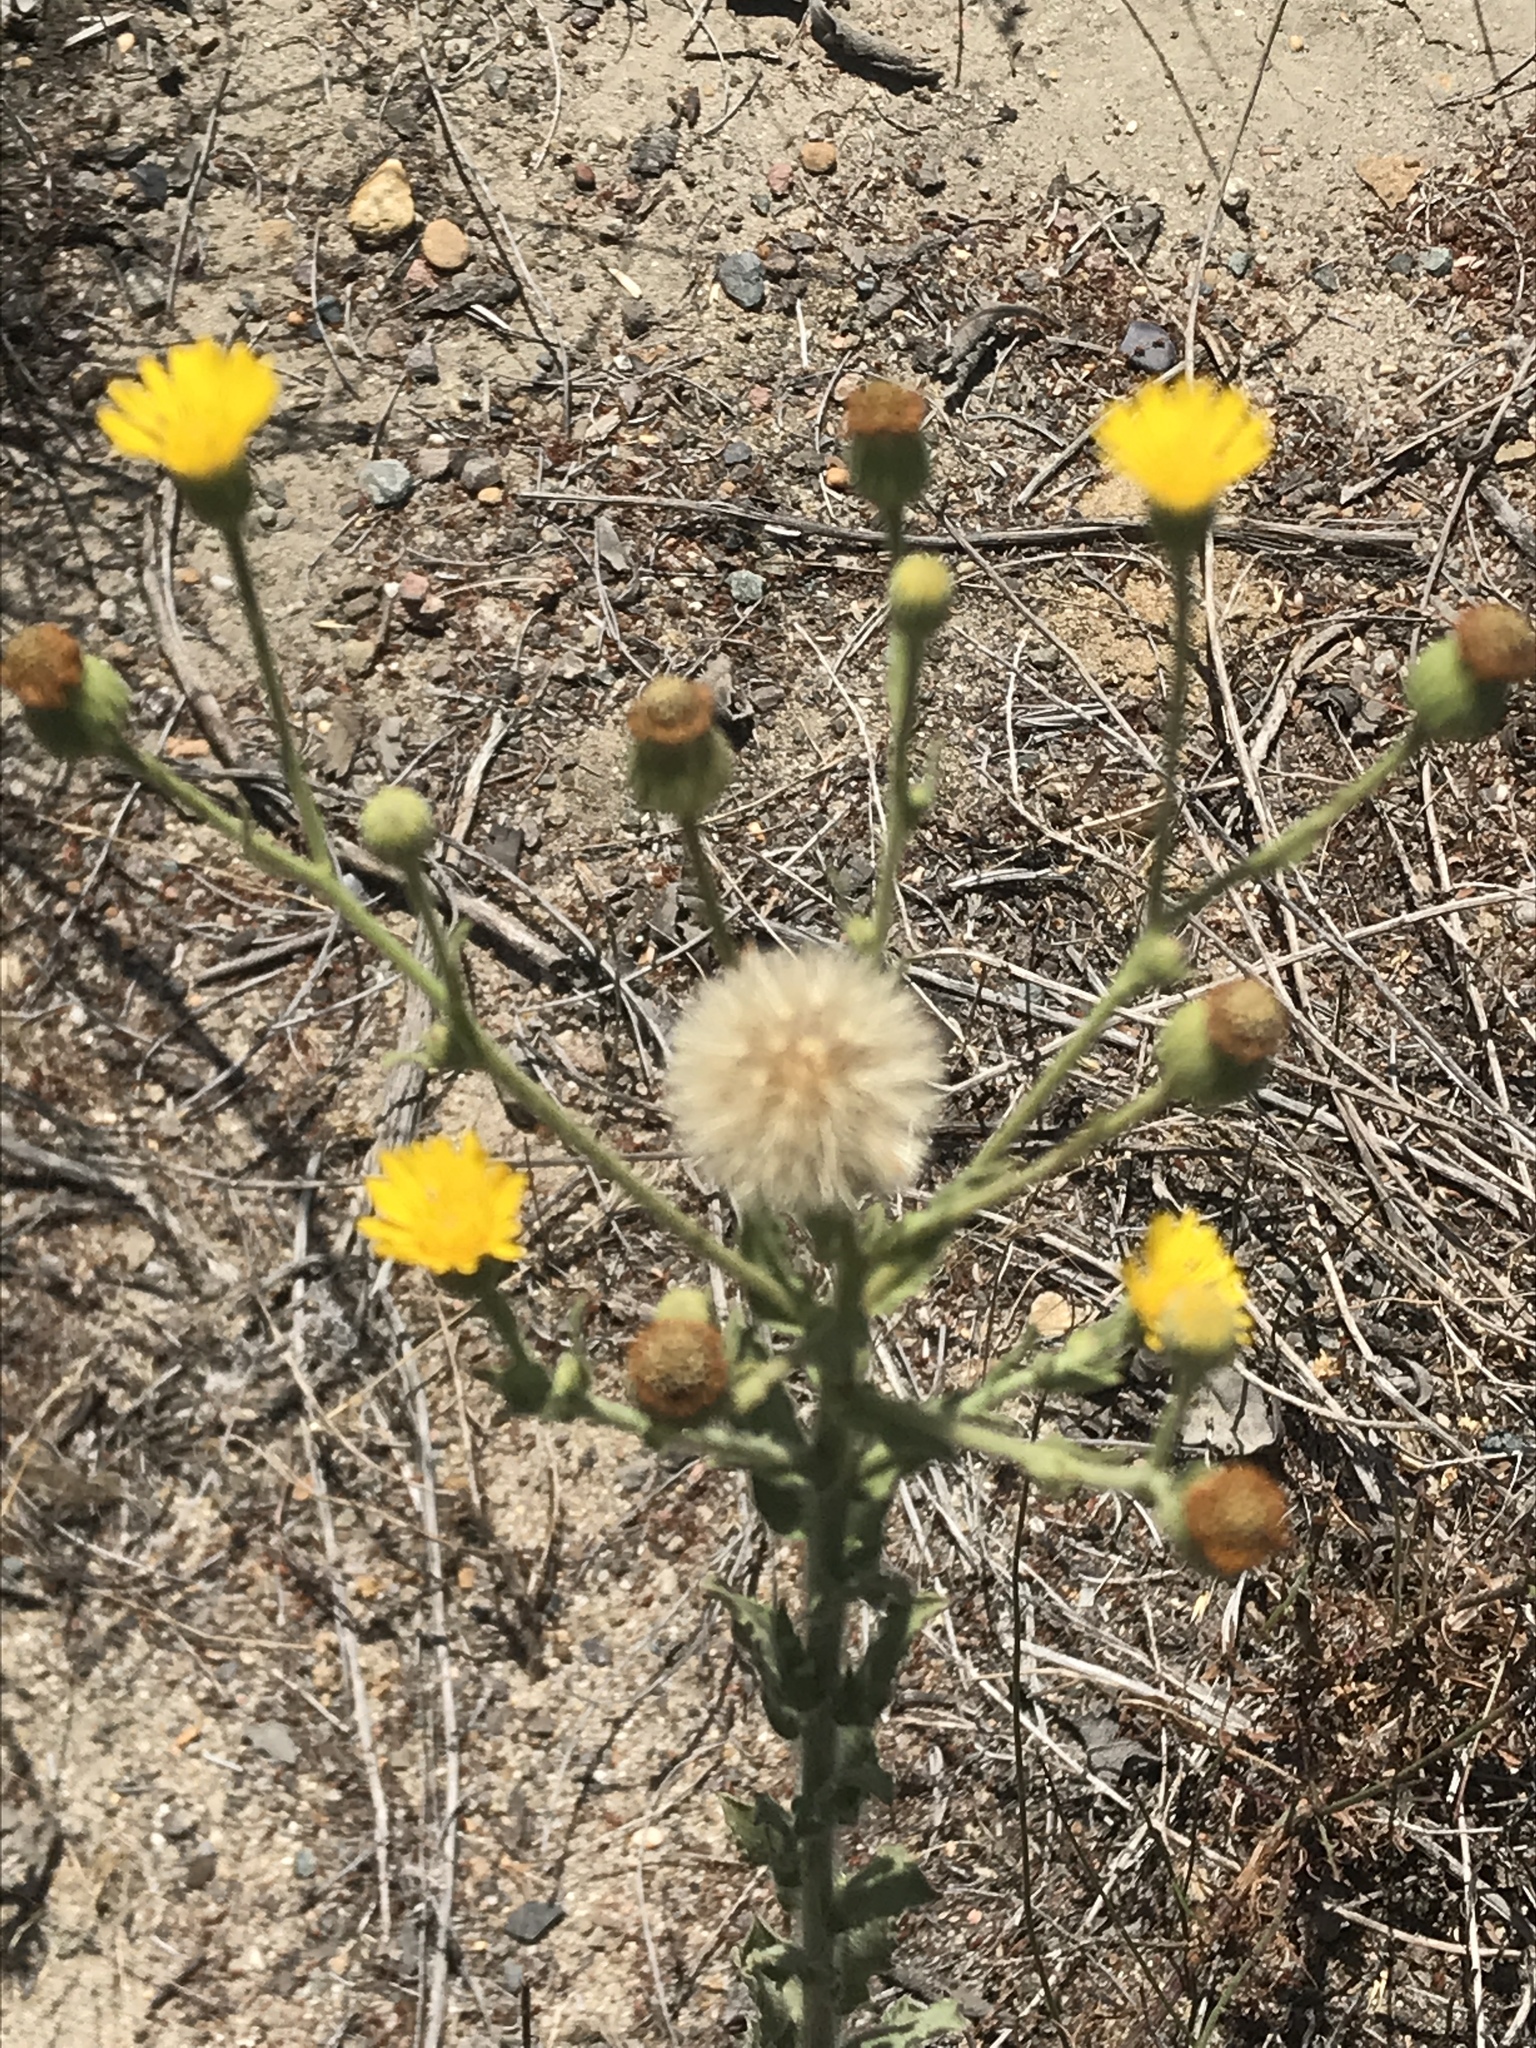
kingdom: Plantae
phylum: Tracheophyta
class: Magnoliopsida
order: Asterales
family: Asteraceae
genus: Heterotheca
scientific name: Heterotheca grandiflora
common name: Telegraphweed
